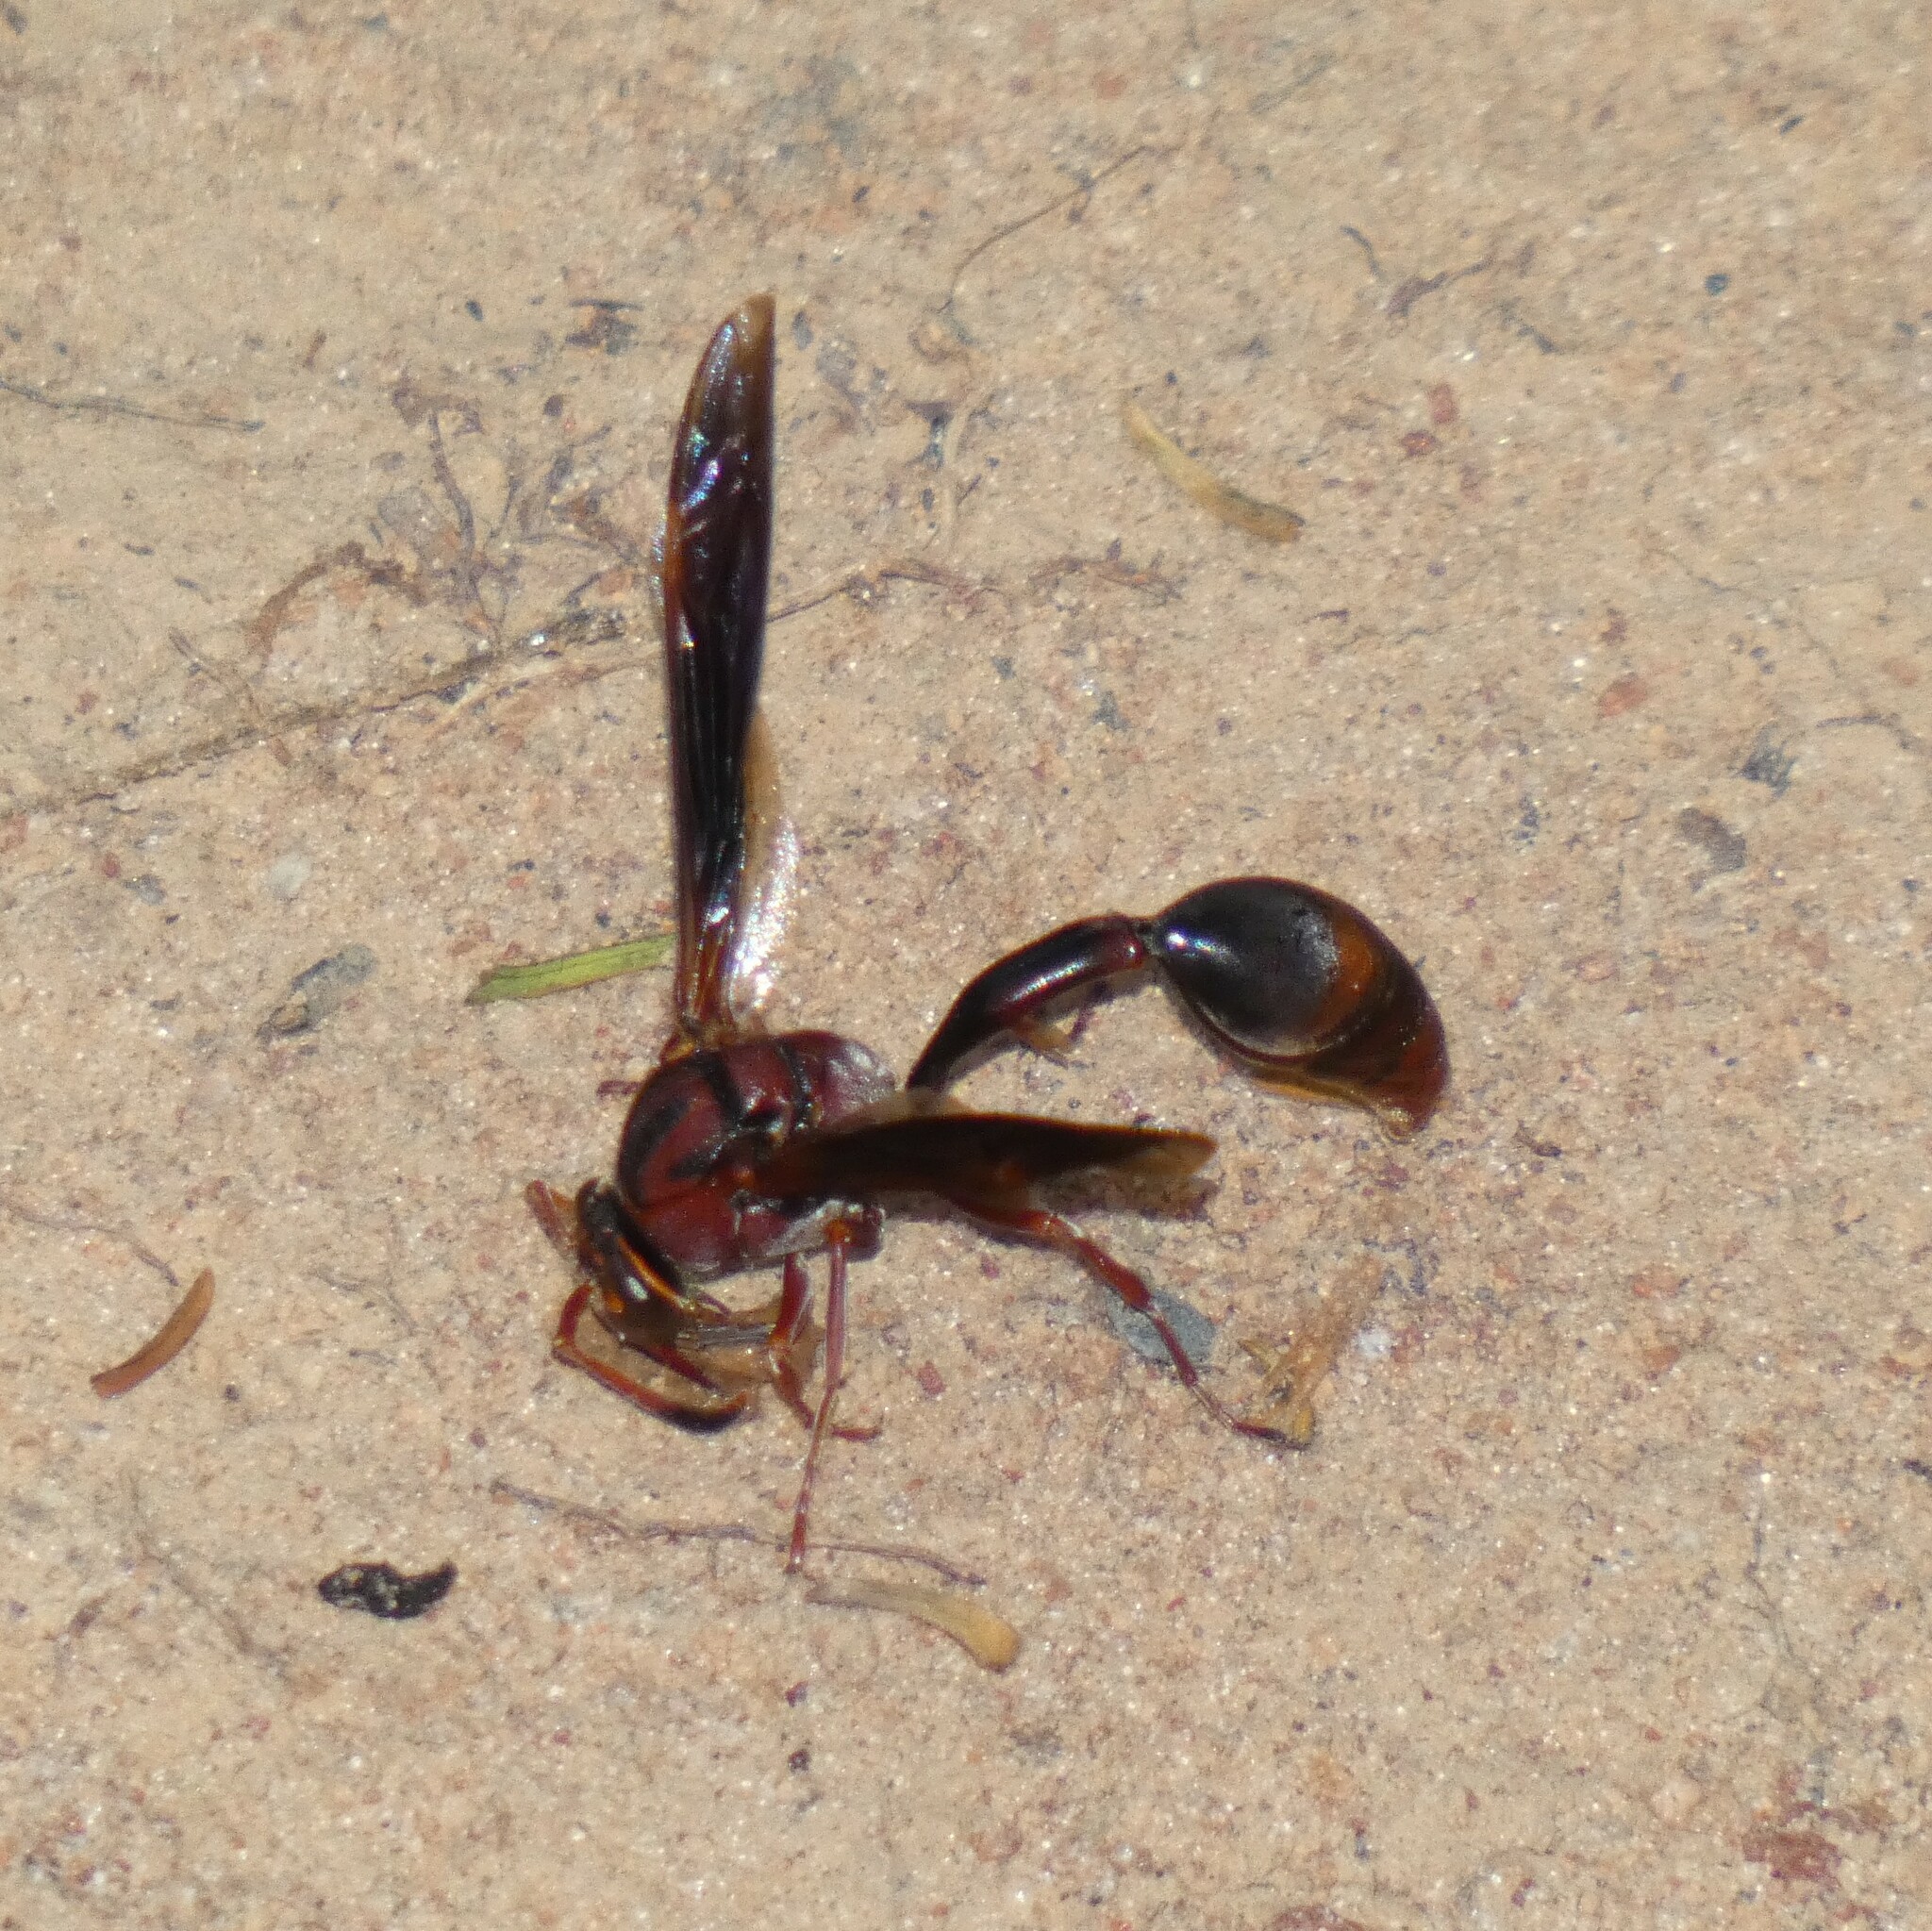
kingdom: Animalia
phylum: Arthropoda
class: Insecta
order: Hymenoptera
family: Eumenidae
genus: Zeta
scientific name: Zeta argillaceum
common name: Potter wasp
